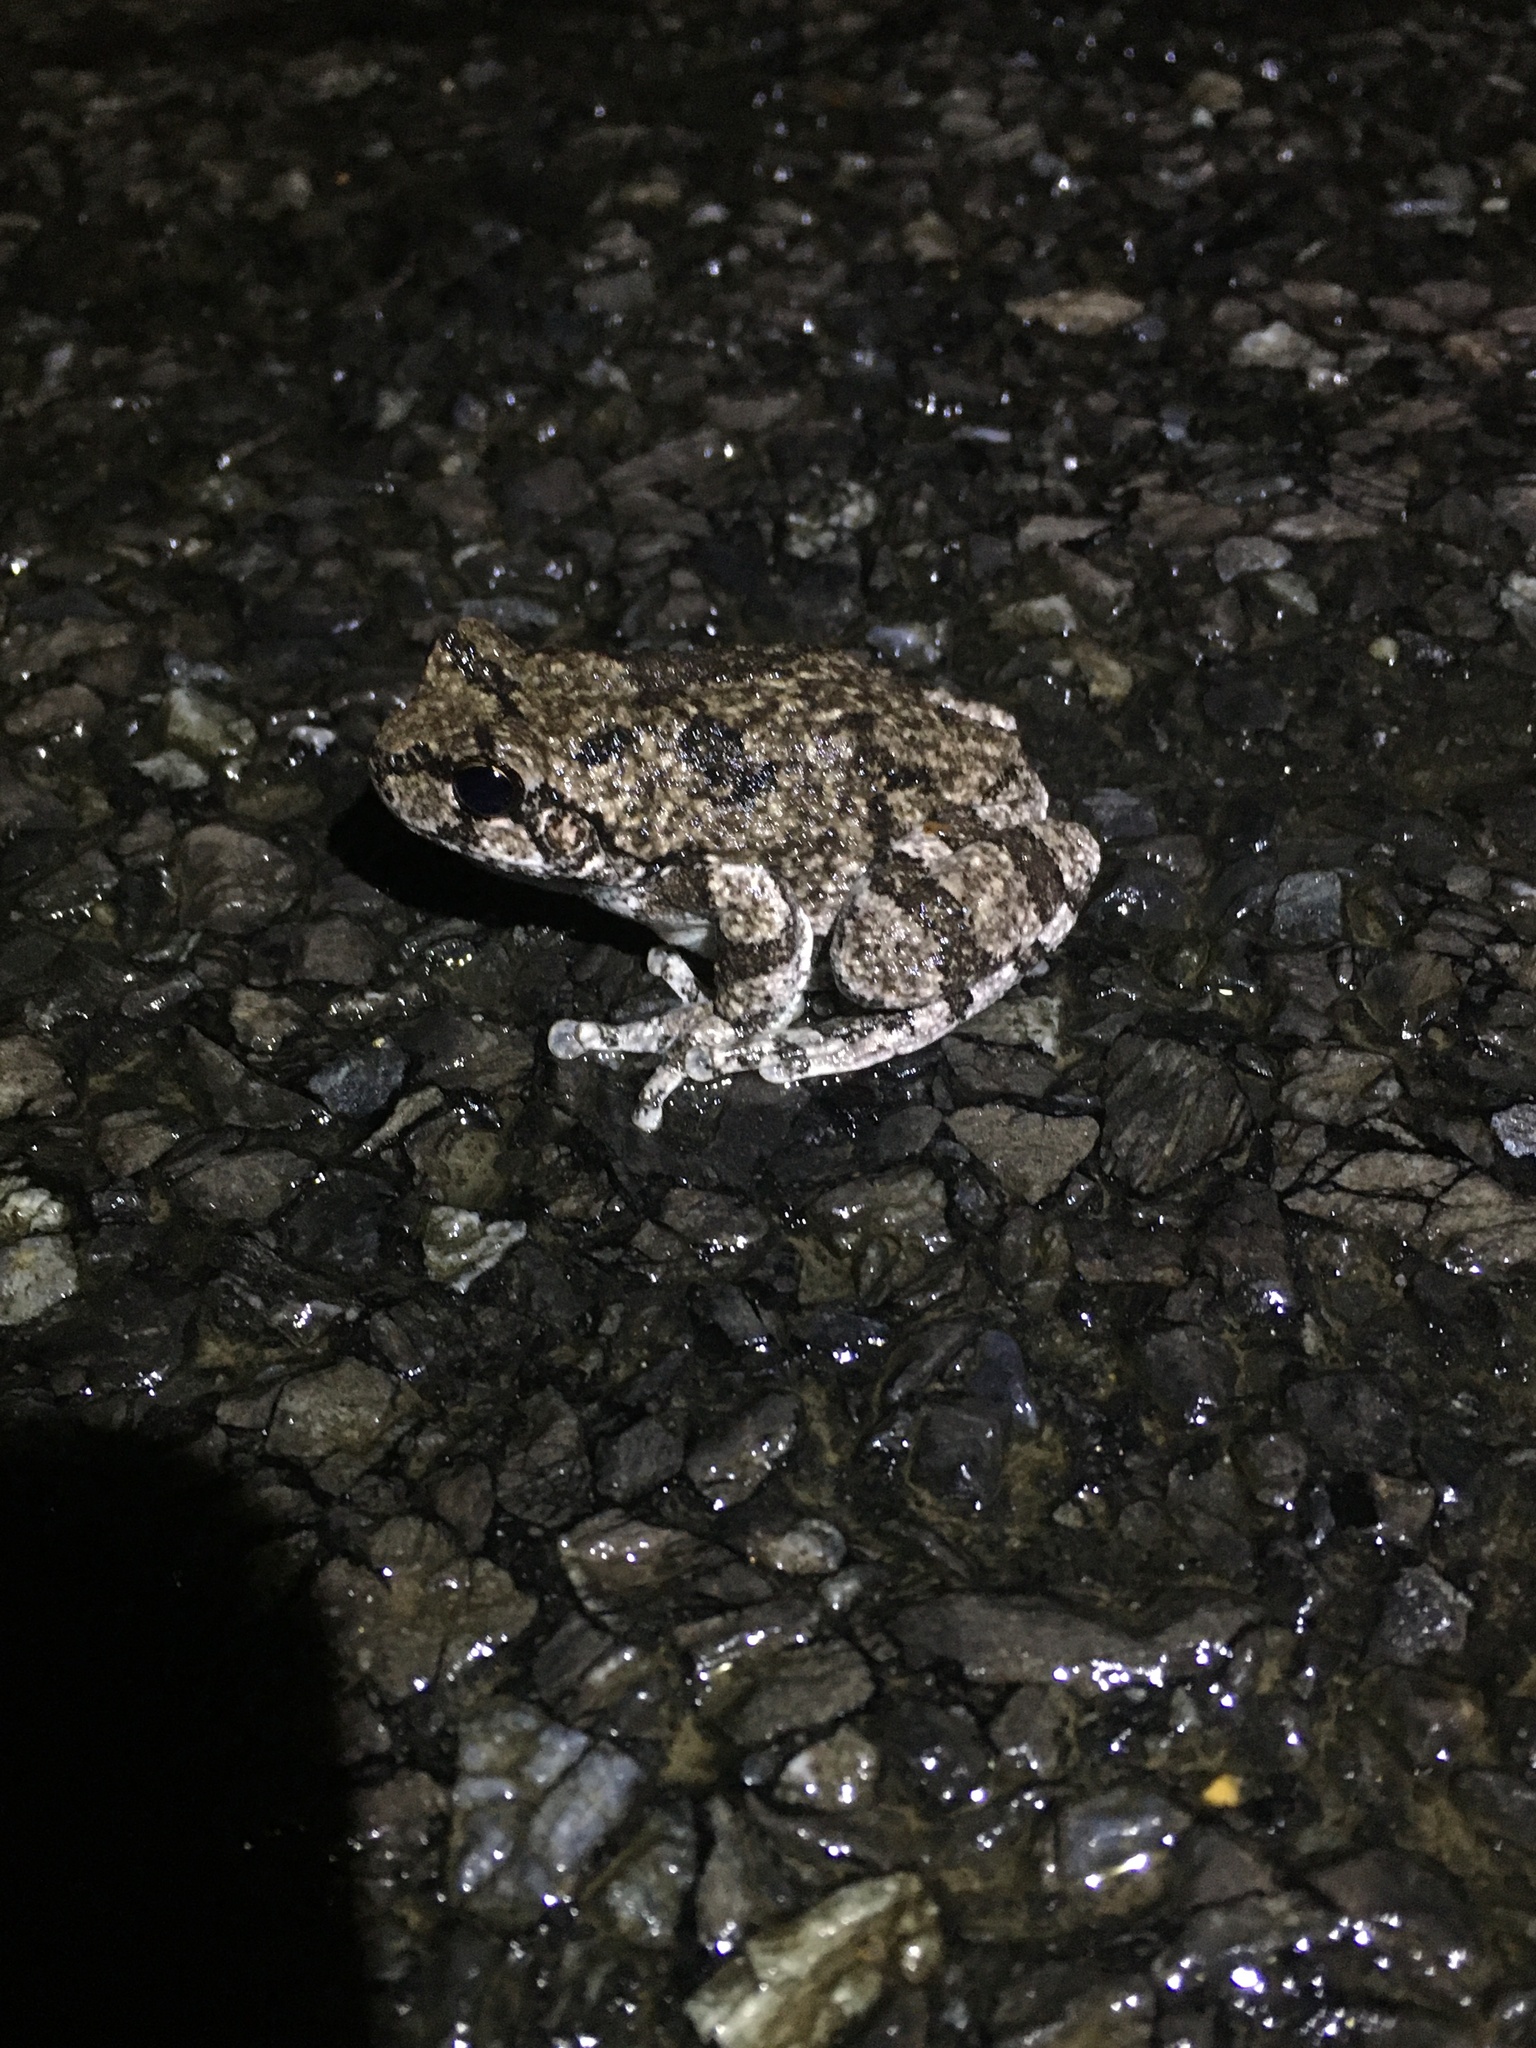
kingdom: Animalia
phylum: Chordata
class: Amphibia
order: Anura
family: Hylidae
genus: Dryophytes
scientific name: Dryophytes versicolor
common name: Gray treefrog
